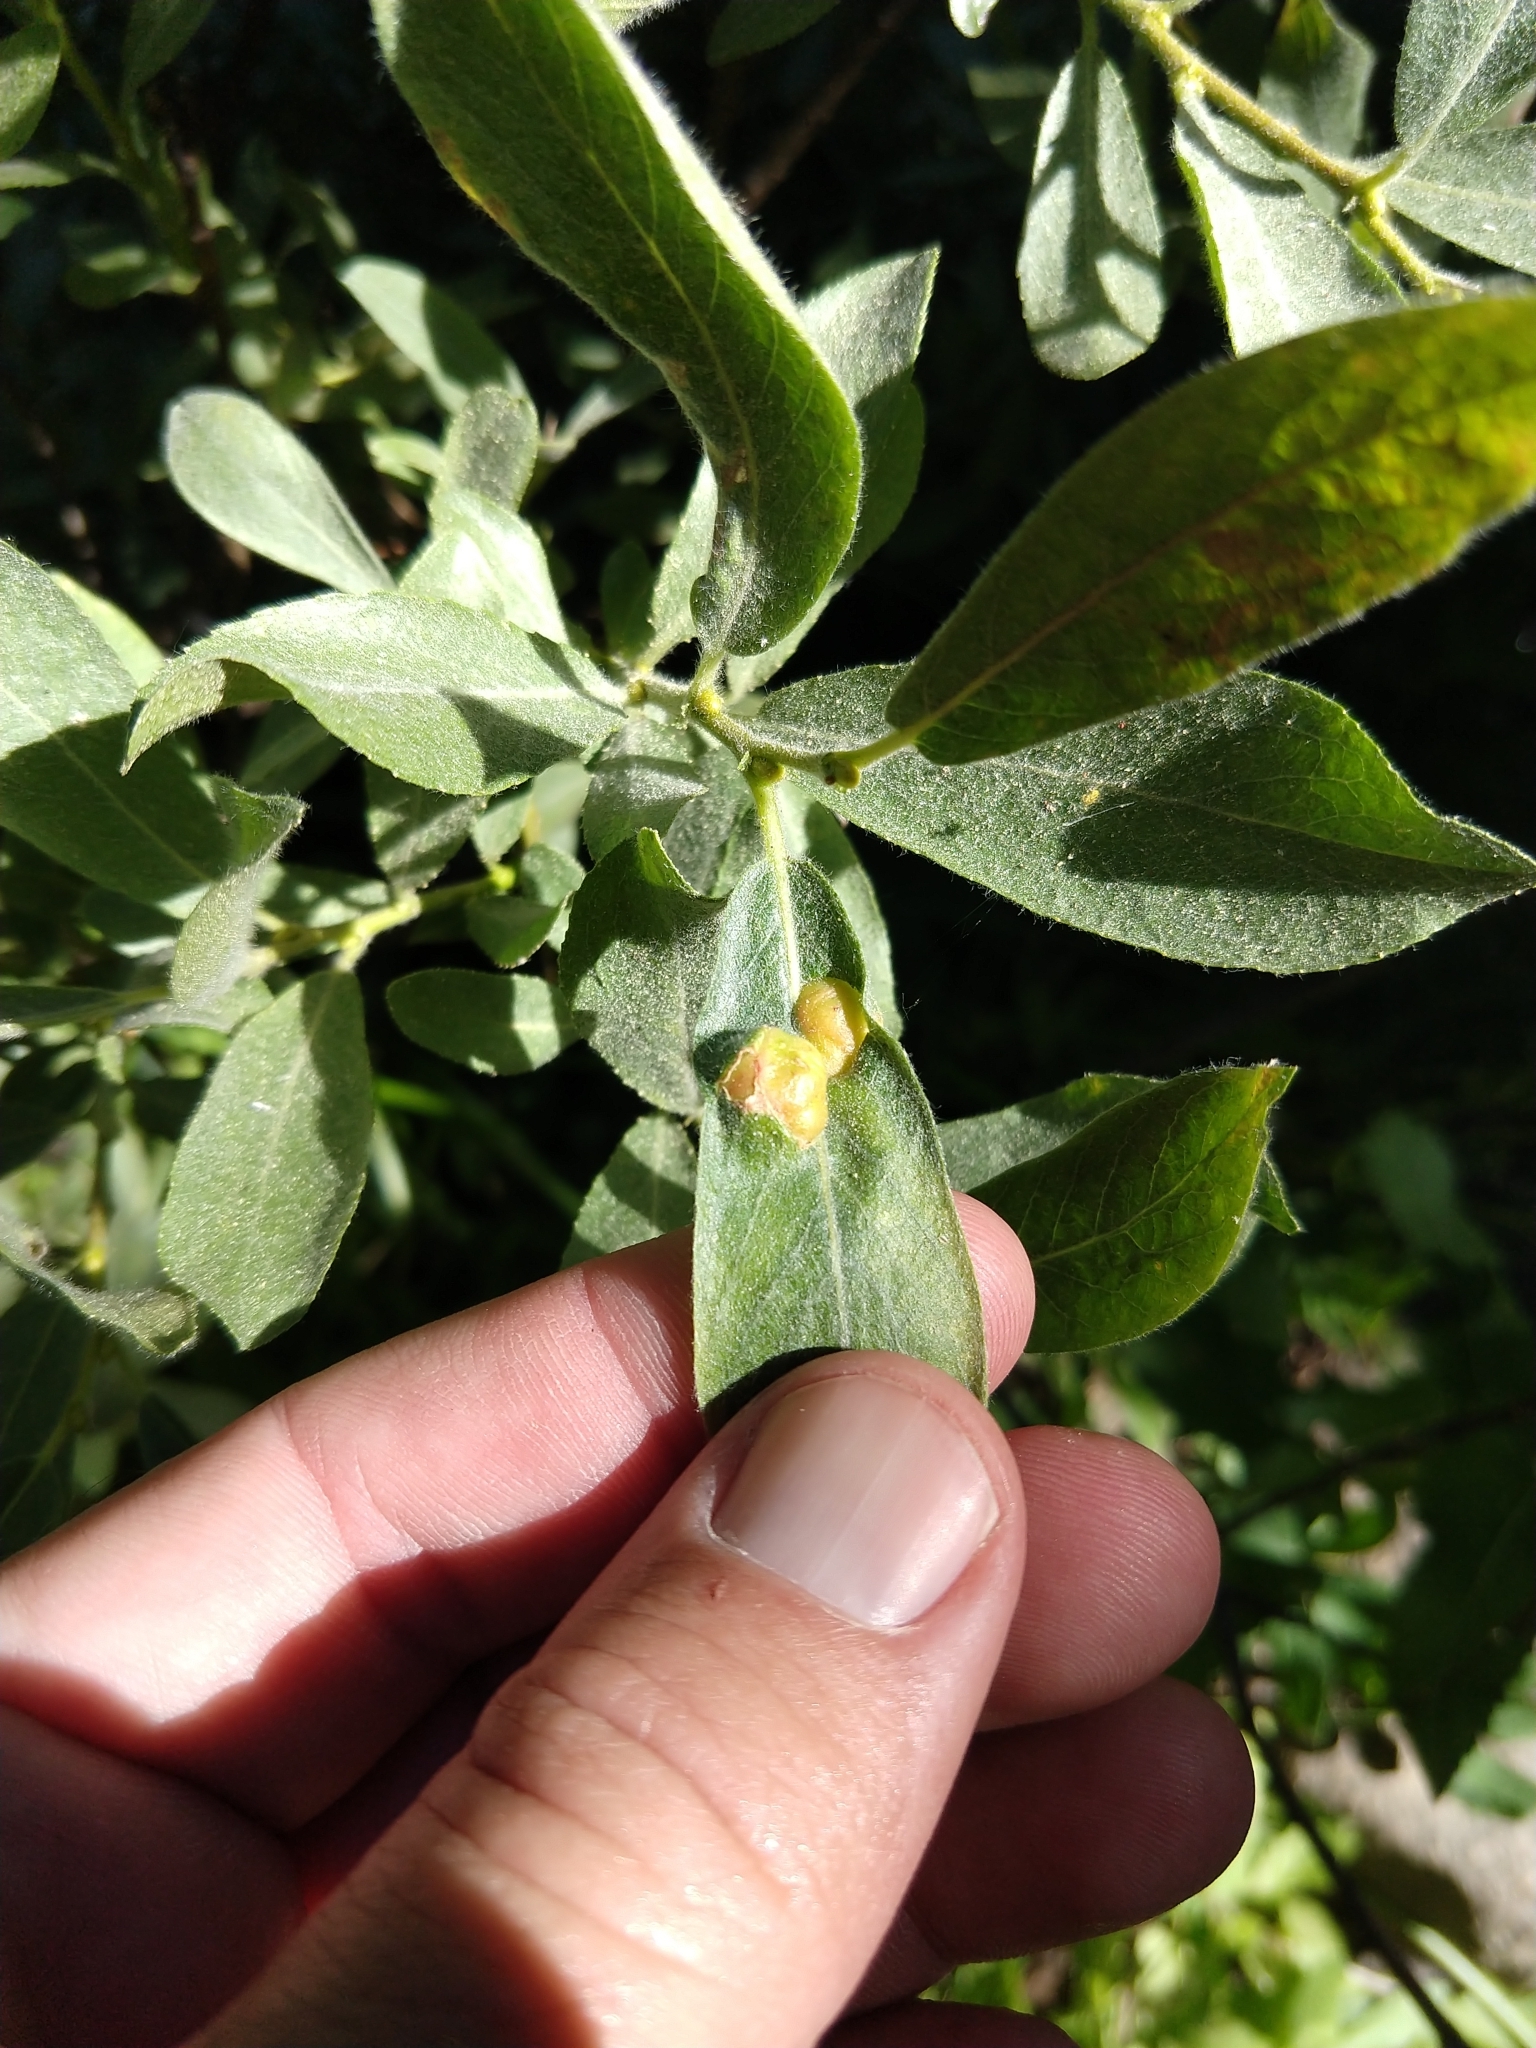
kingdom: Animalia
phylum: Arthropoda
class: Insecta
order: Hymenoptera
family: Tenthredinidae
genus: Euura
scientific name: Euura
